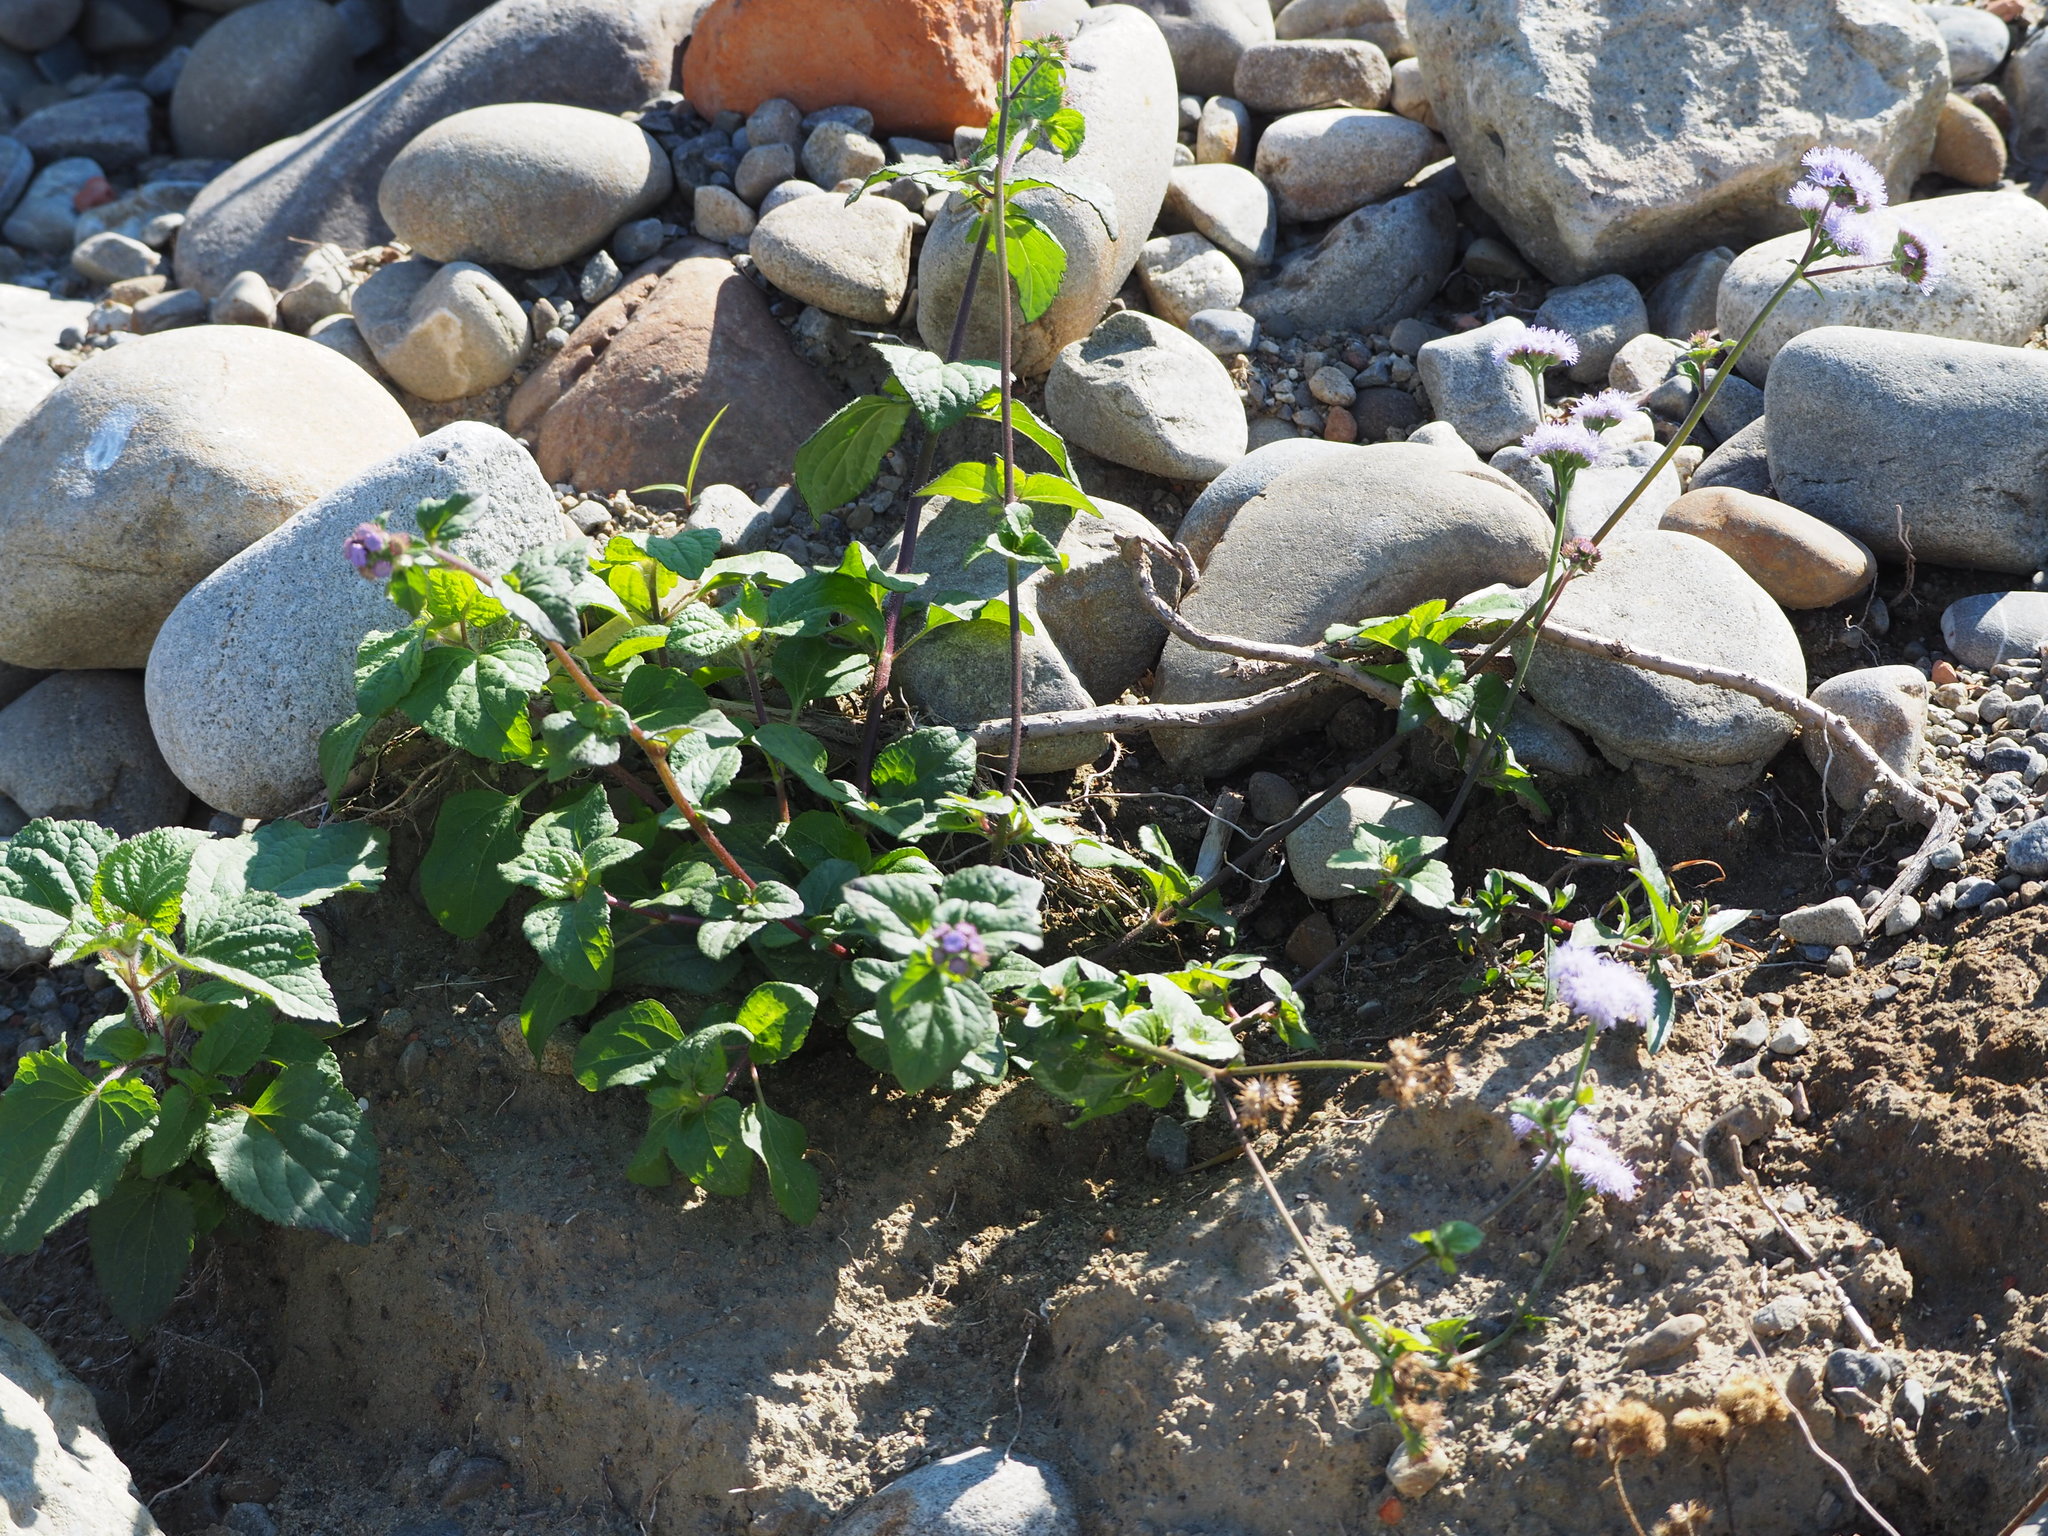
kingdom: Plantae
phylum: Tracheophyta
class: Magnoliopsida
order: Asterales
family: Asteraceae
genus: Ageratum
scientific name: Ageratum houstonianum
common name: Bluemink
